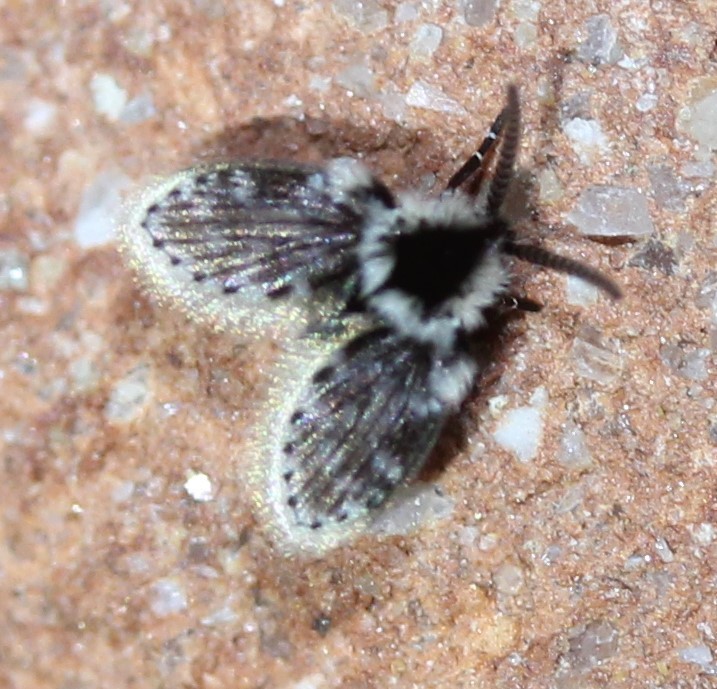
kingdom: Animalia
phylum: Arthropoda
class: Insecta
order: Diptera
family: Psychodidae
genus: Lepiseodina
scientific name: Lepiseodina
